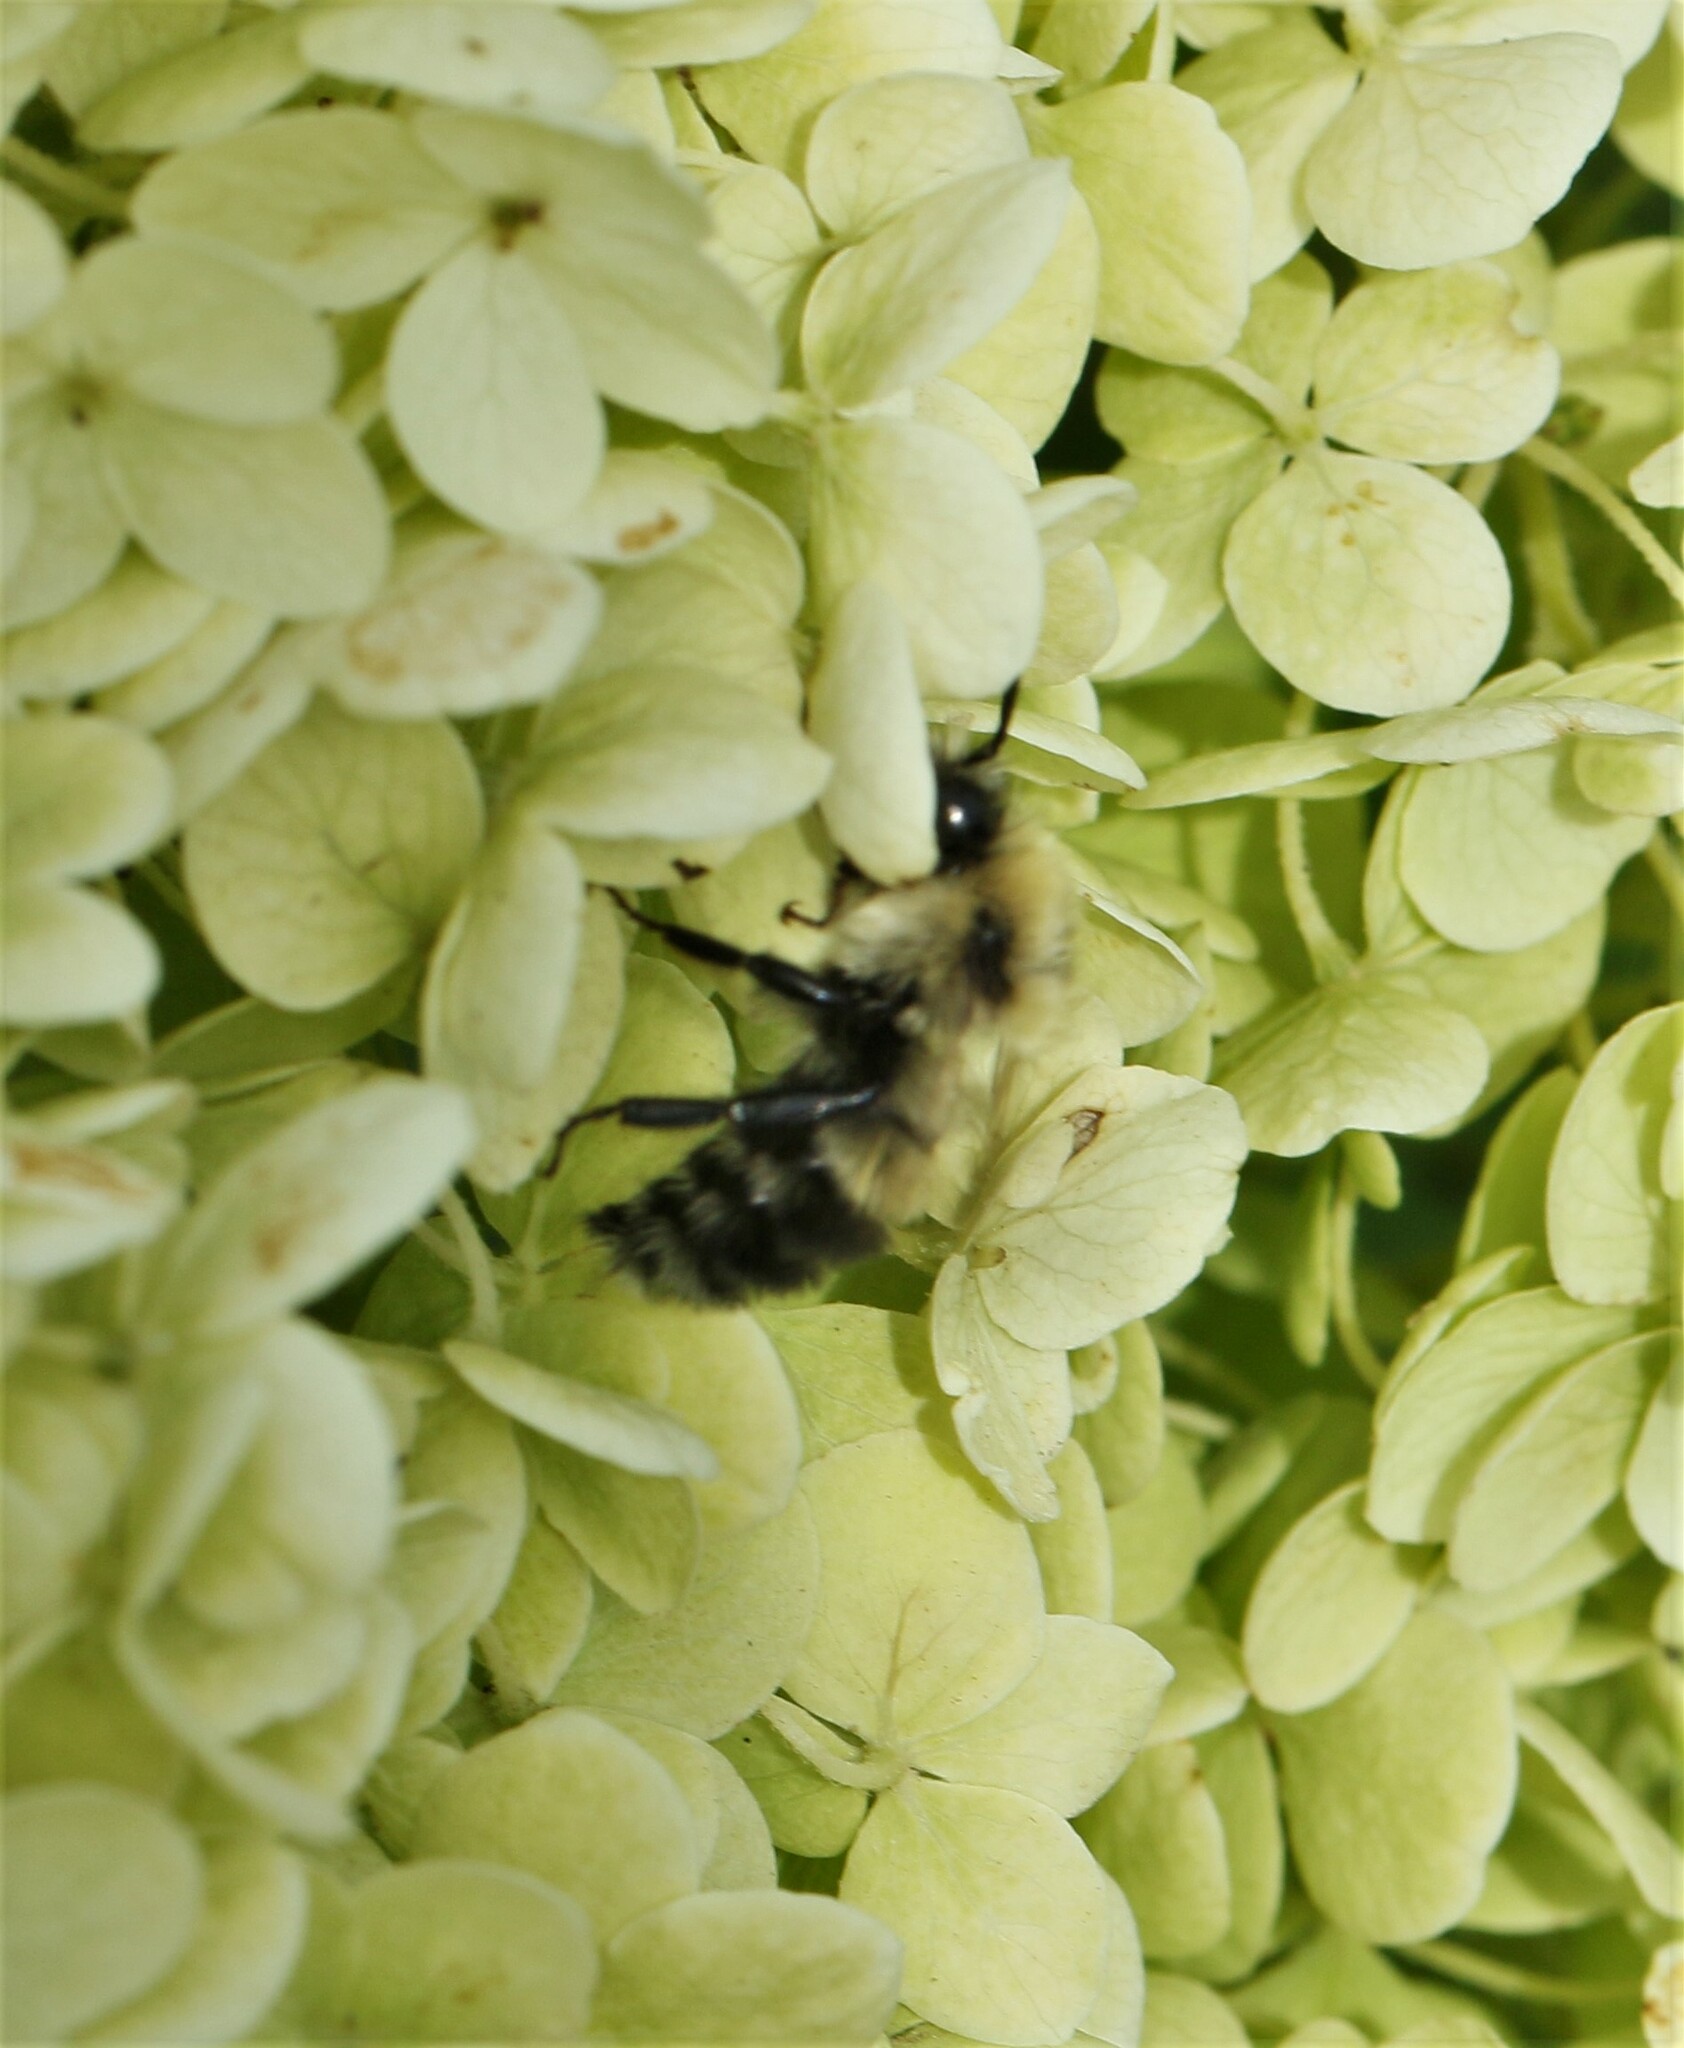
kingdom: Animalia
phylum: Arthropoda
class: Insecta
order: Hymenoptera
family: Apidae
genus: Pyrobombus
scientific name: Pyrobombus
